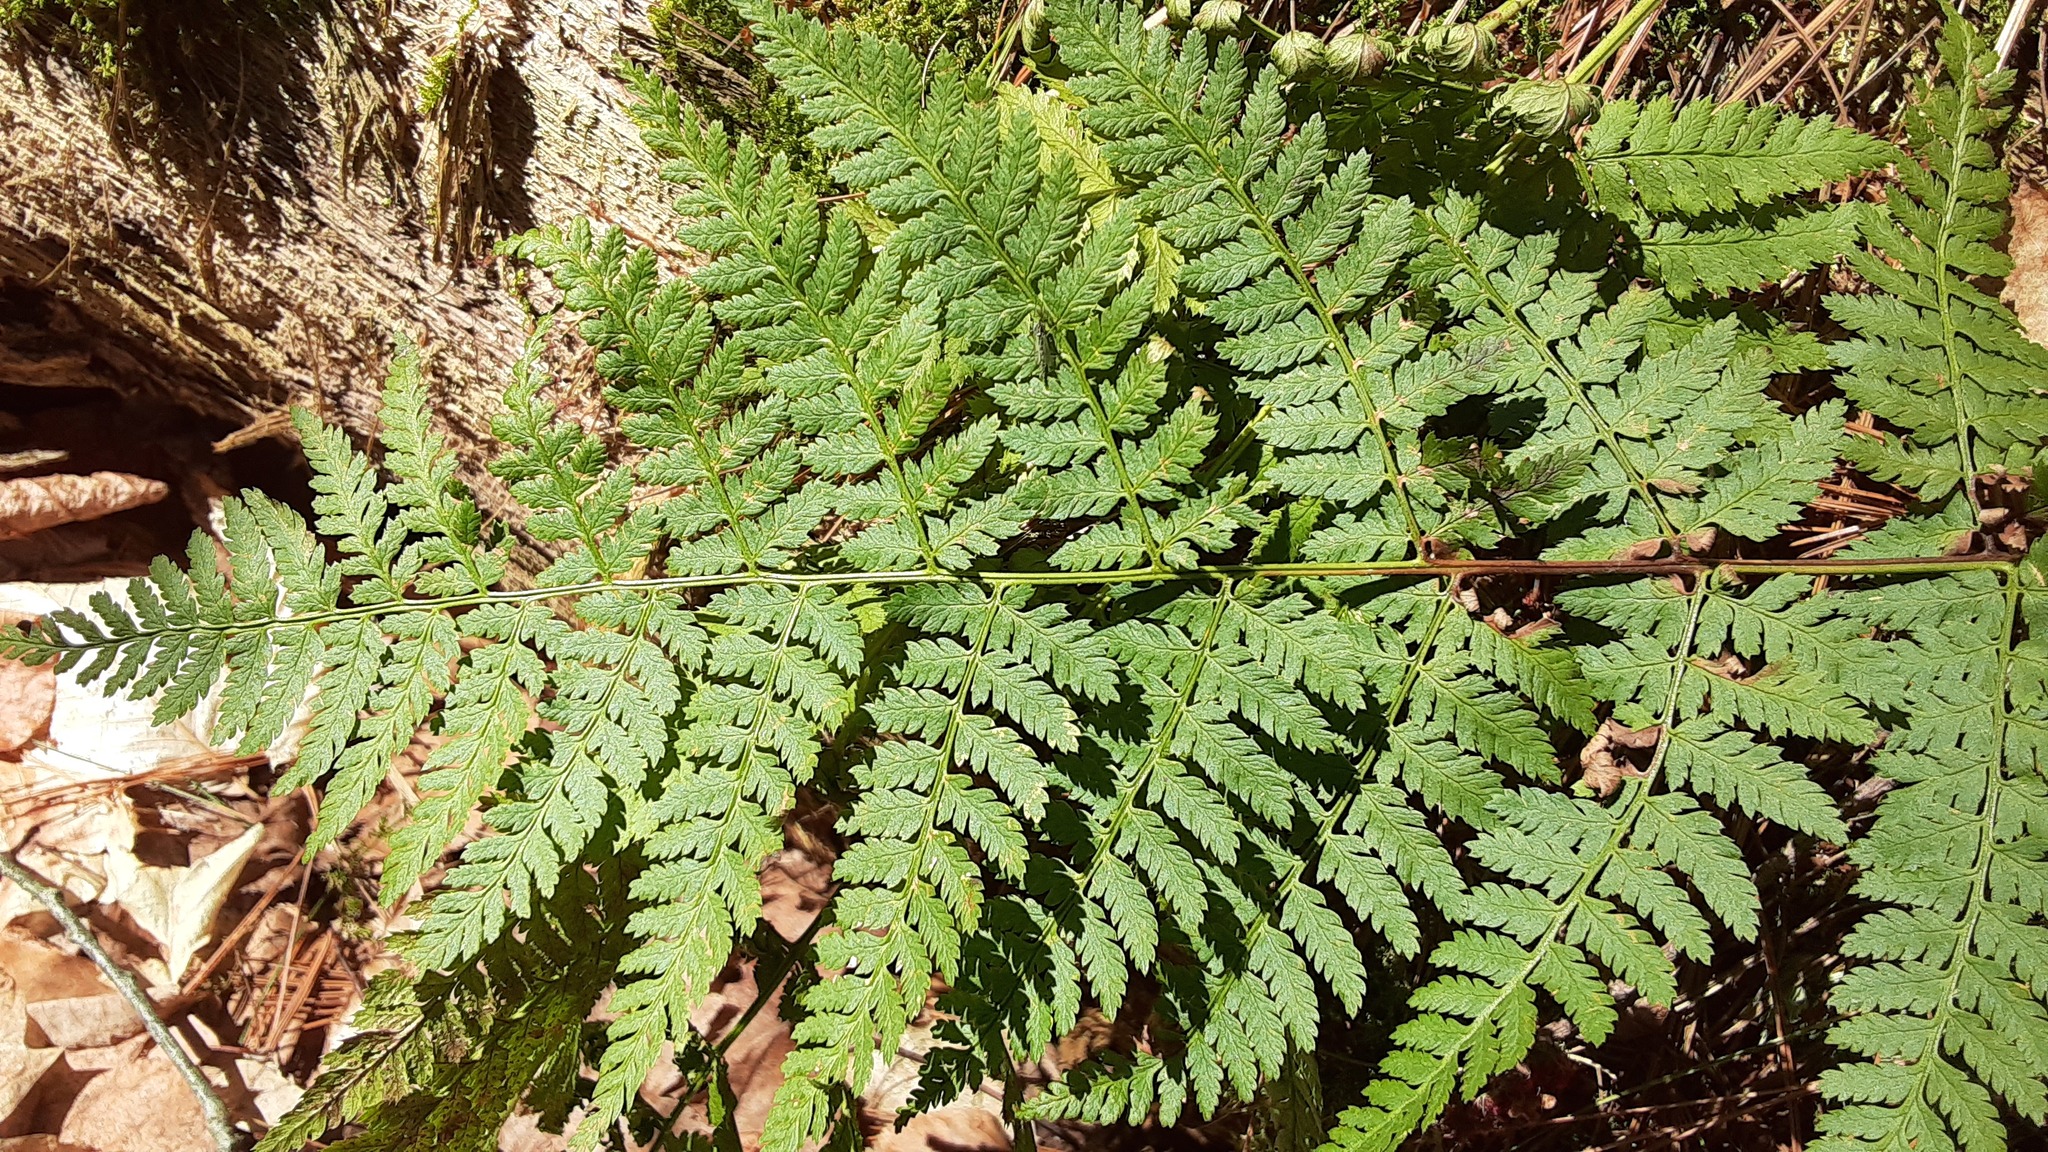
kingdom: Plantae
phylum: Tracheophyta
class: Polypodiopsida
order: Polypodiales
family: Dryopteridaceae
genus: Dryopteris
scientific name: Dryopteris intermedia
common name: Evergreen wood fern
